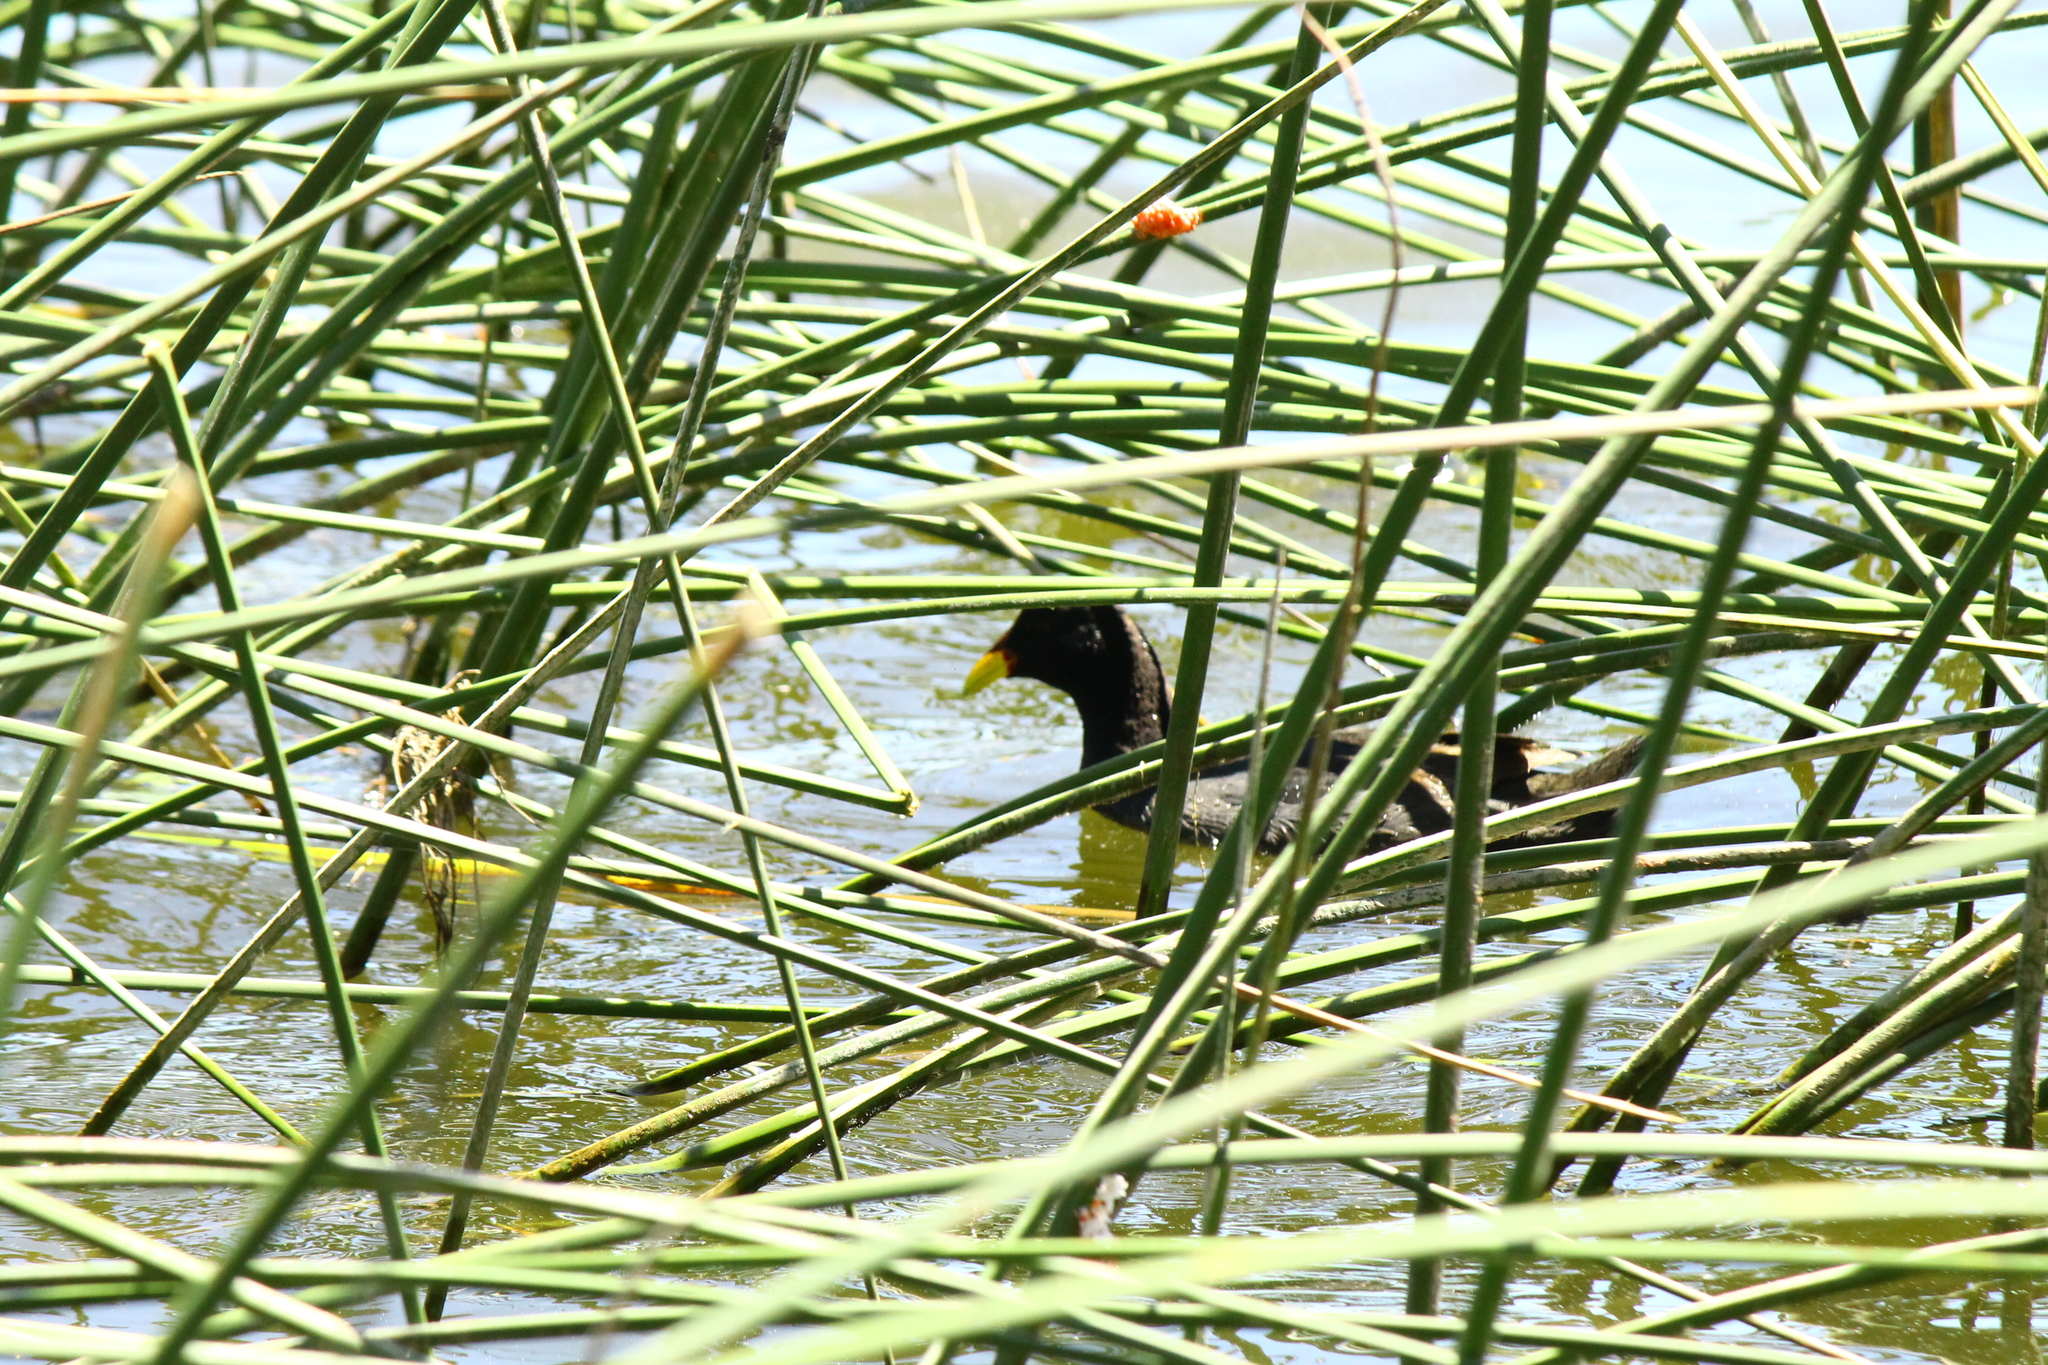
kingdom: Animalia
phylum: Chordata
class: Aves
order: Gruiformes
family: Rallidae
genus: Fulica
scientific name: Fulica rufifrons
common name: Red-fronted coot
